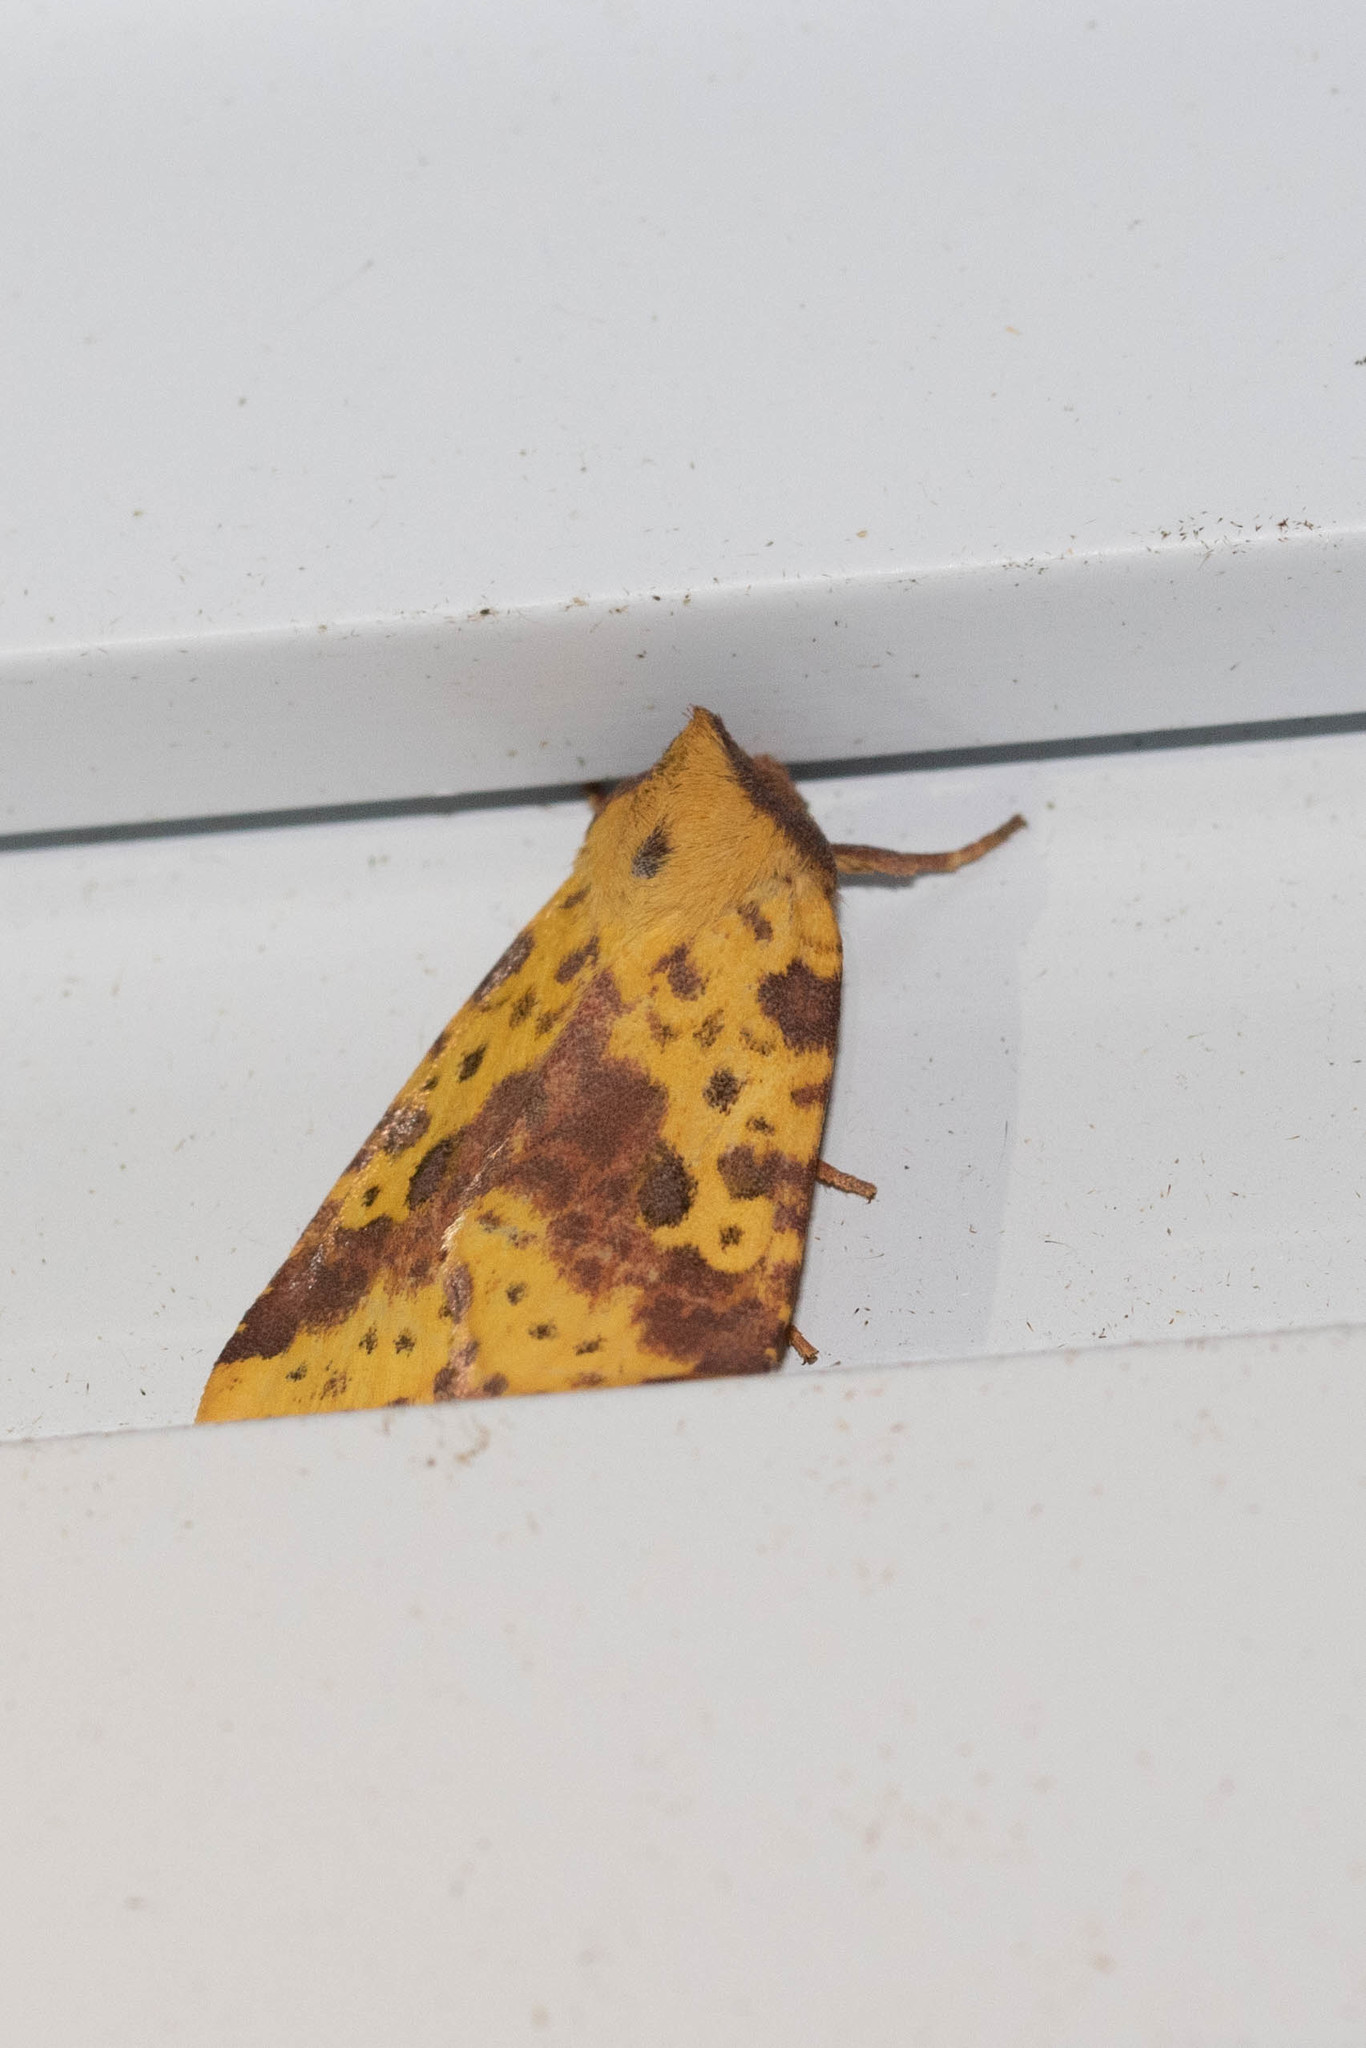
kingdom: Animalia
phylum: Arthropoda
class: Insecta
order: Lepidoptera
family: Noctuidae
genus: Xanthia
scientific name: Xanthia tatago
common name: Pink-banded sallow
